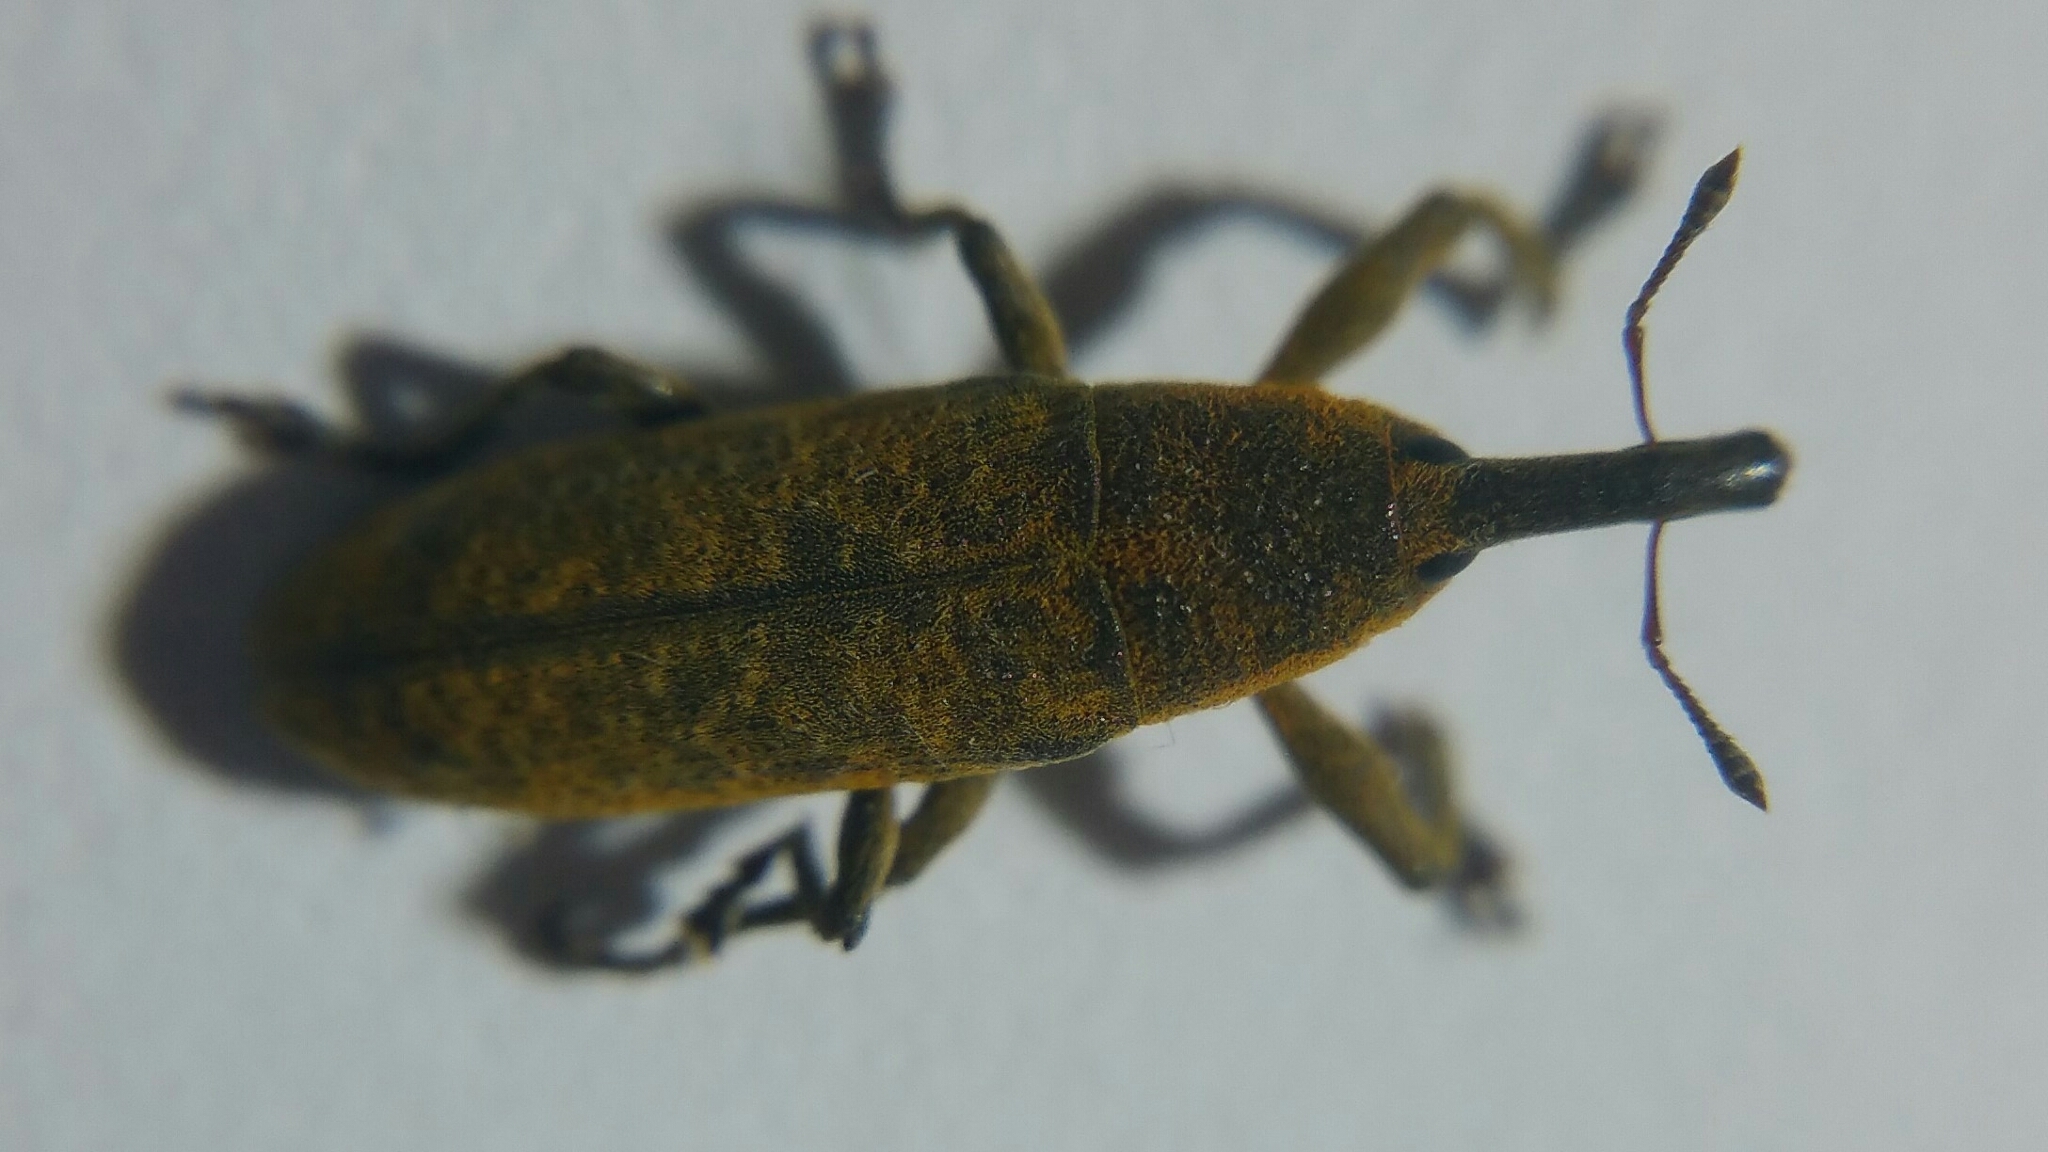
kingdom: Animalia
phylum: Arthropoda
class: Insecta
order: Coleoptera
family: Curculionidae
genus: Lixus
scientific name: Lixus bardanae
